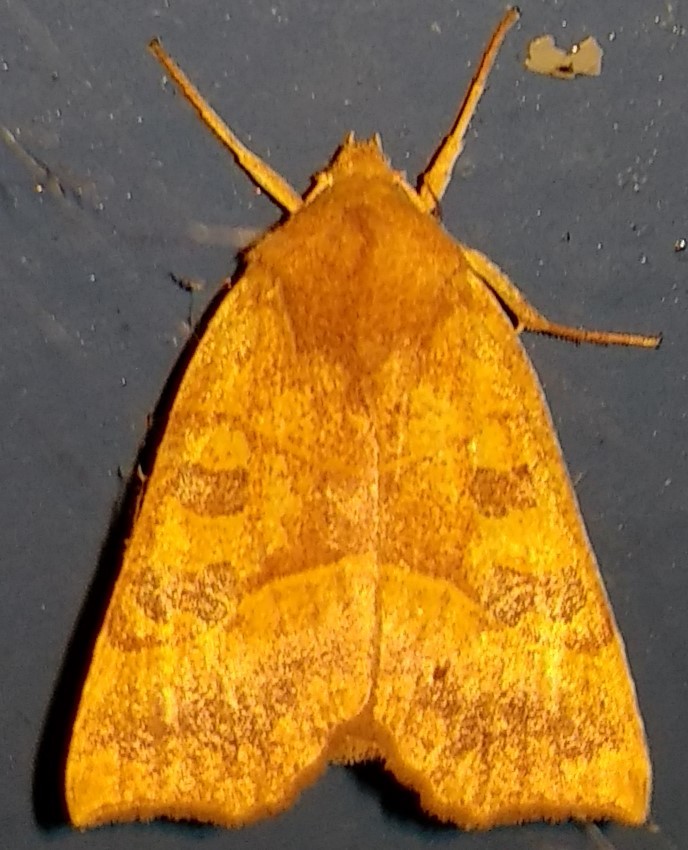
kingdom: Animalia
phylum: Arthropoda
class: Insecta
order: Lepidoptera
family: Noctuidae
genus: Eucirroedia
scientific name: Eucirroedia pampina
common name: Scalloped sallow
